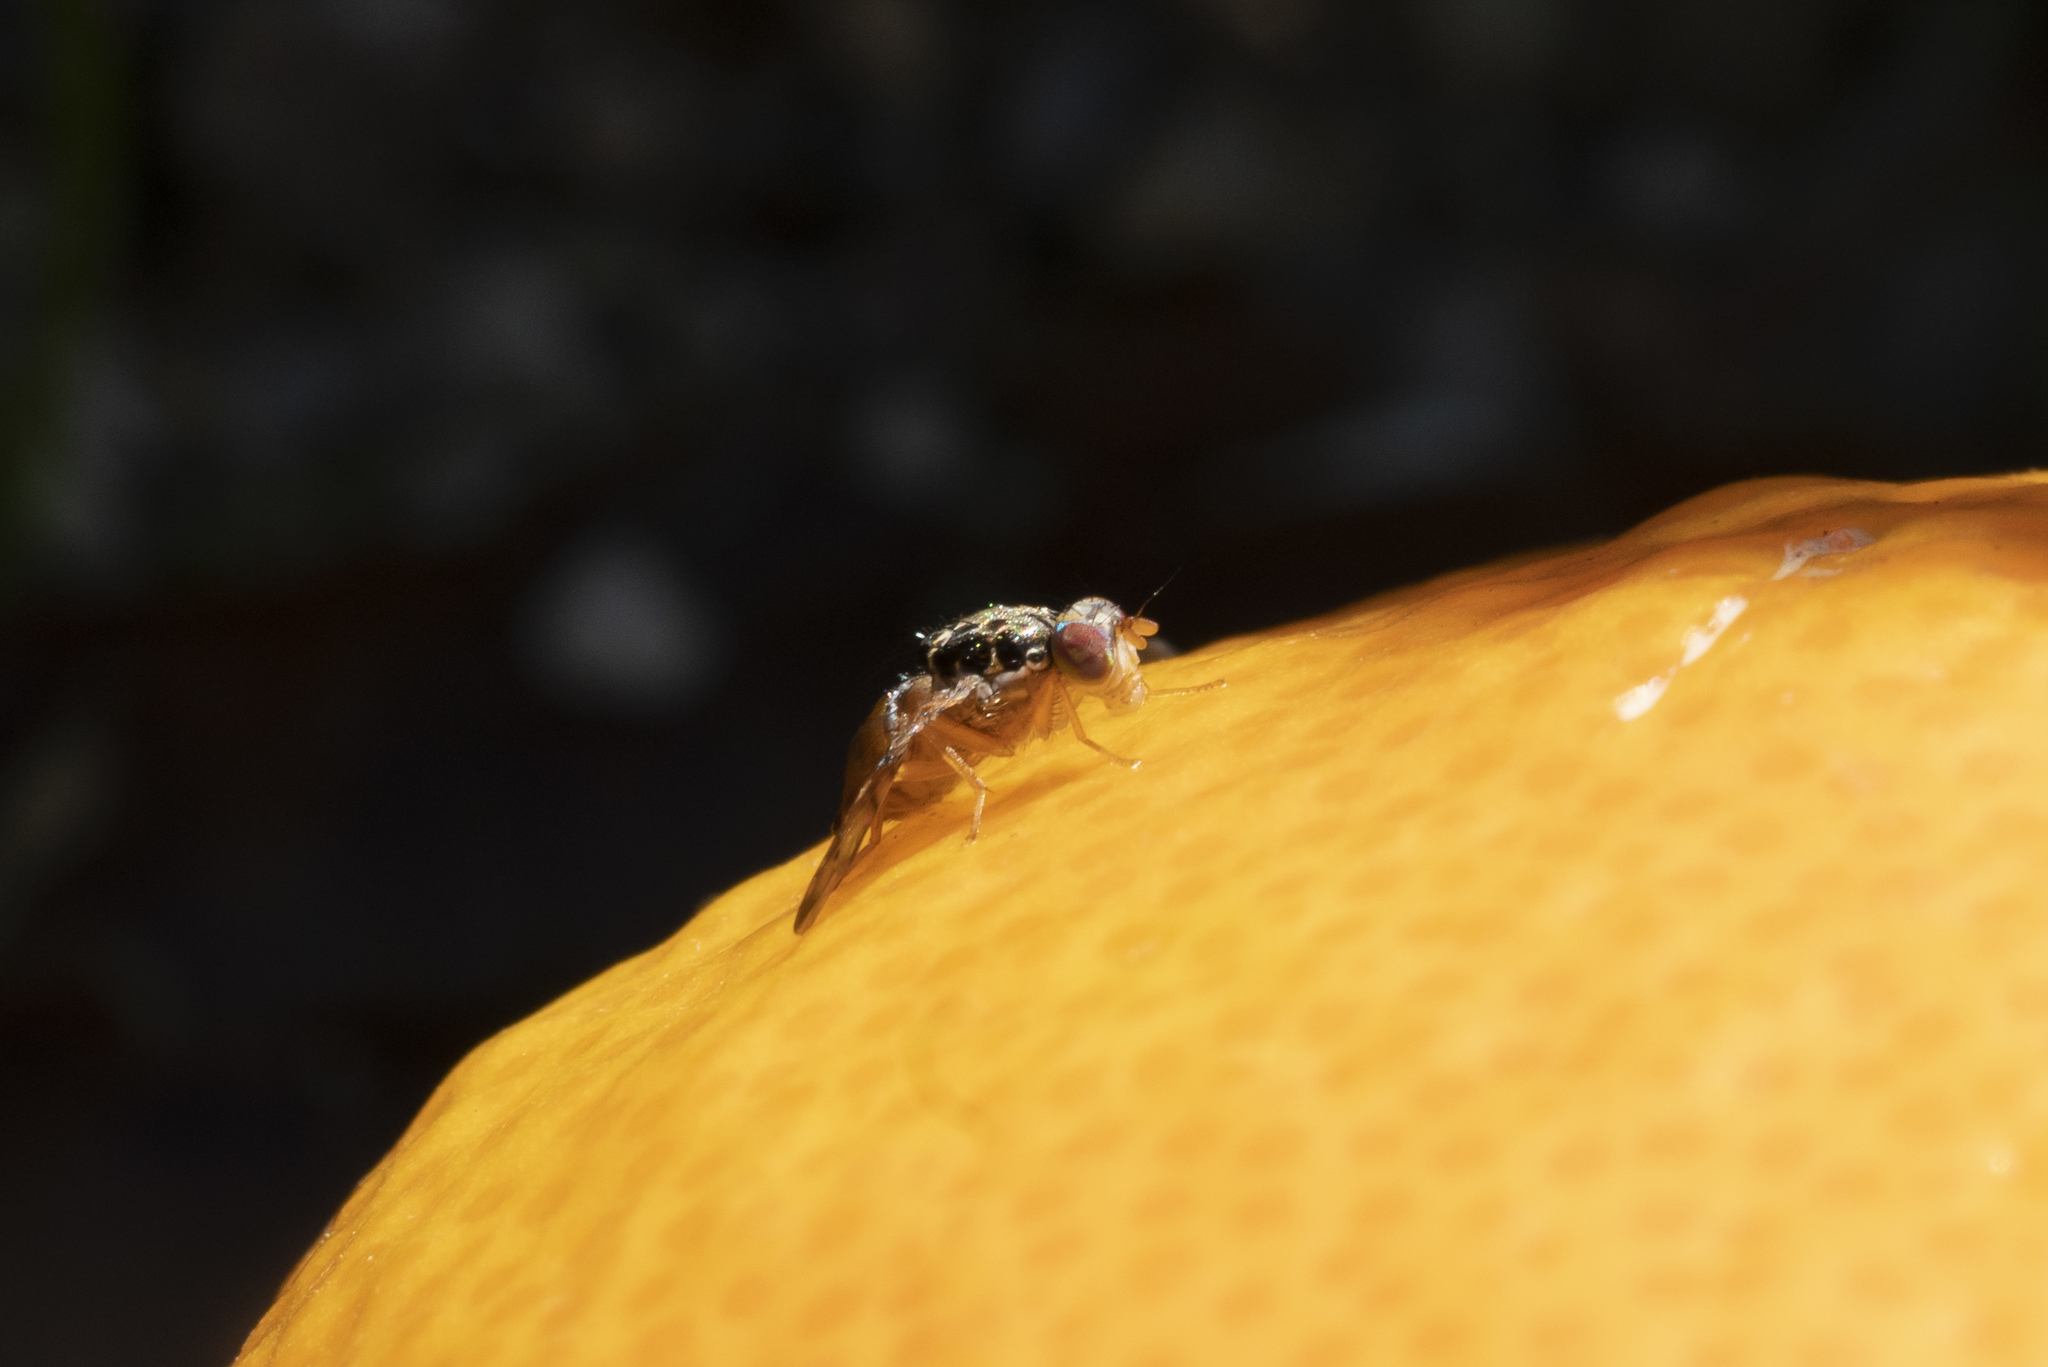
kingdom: Animalia
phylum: Arthropoda
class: Insecta
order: Diptera
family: Tephritidae
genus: Ceratitis
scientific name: Ceratitis capitata
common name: Mediterranean fruit fly
